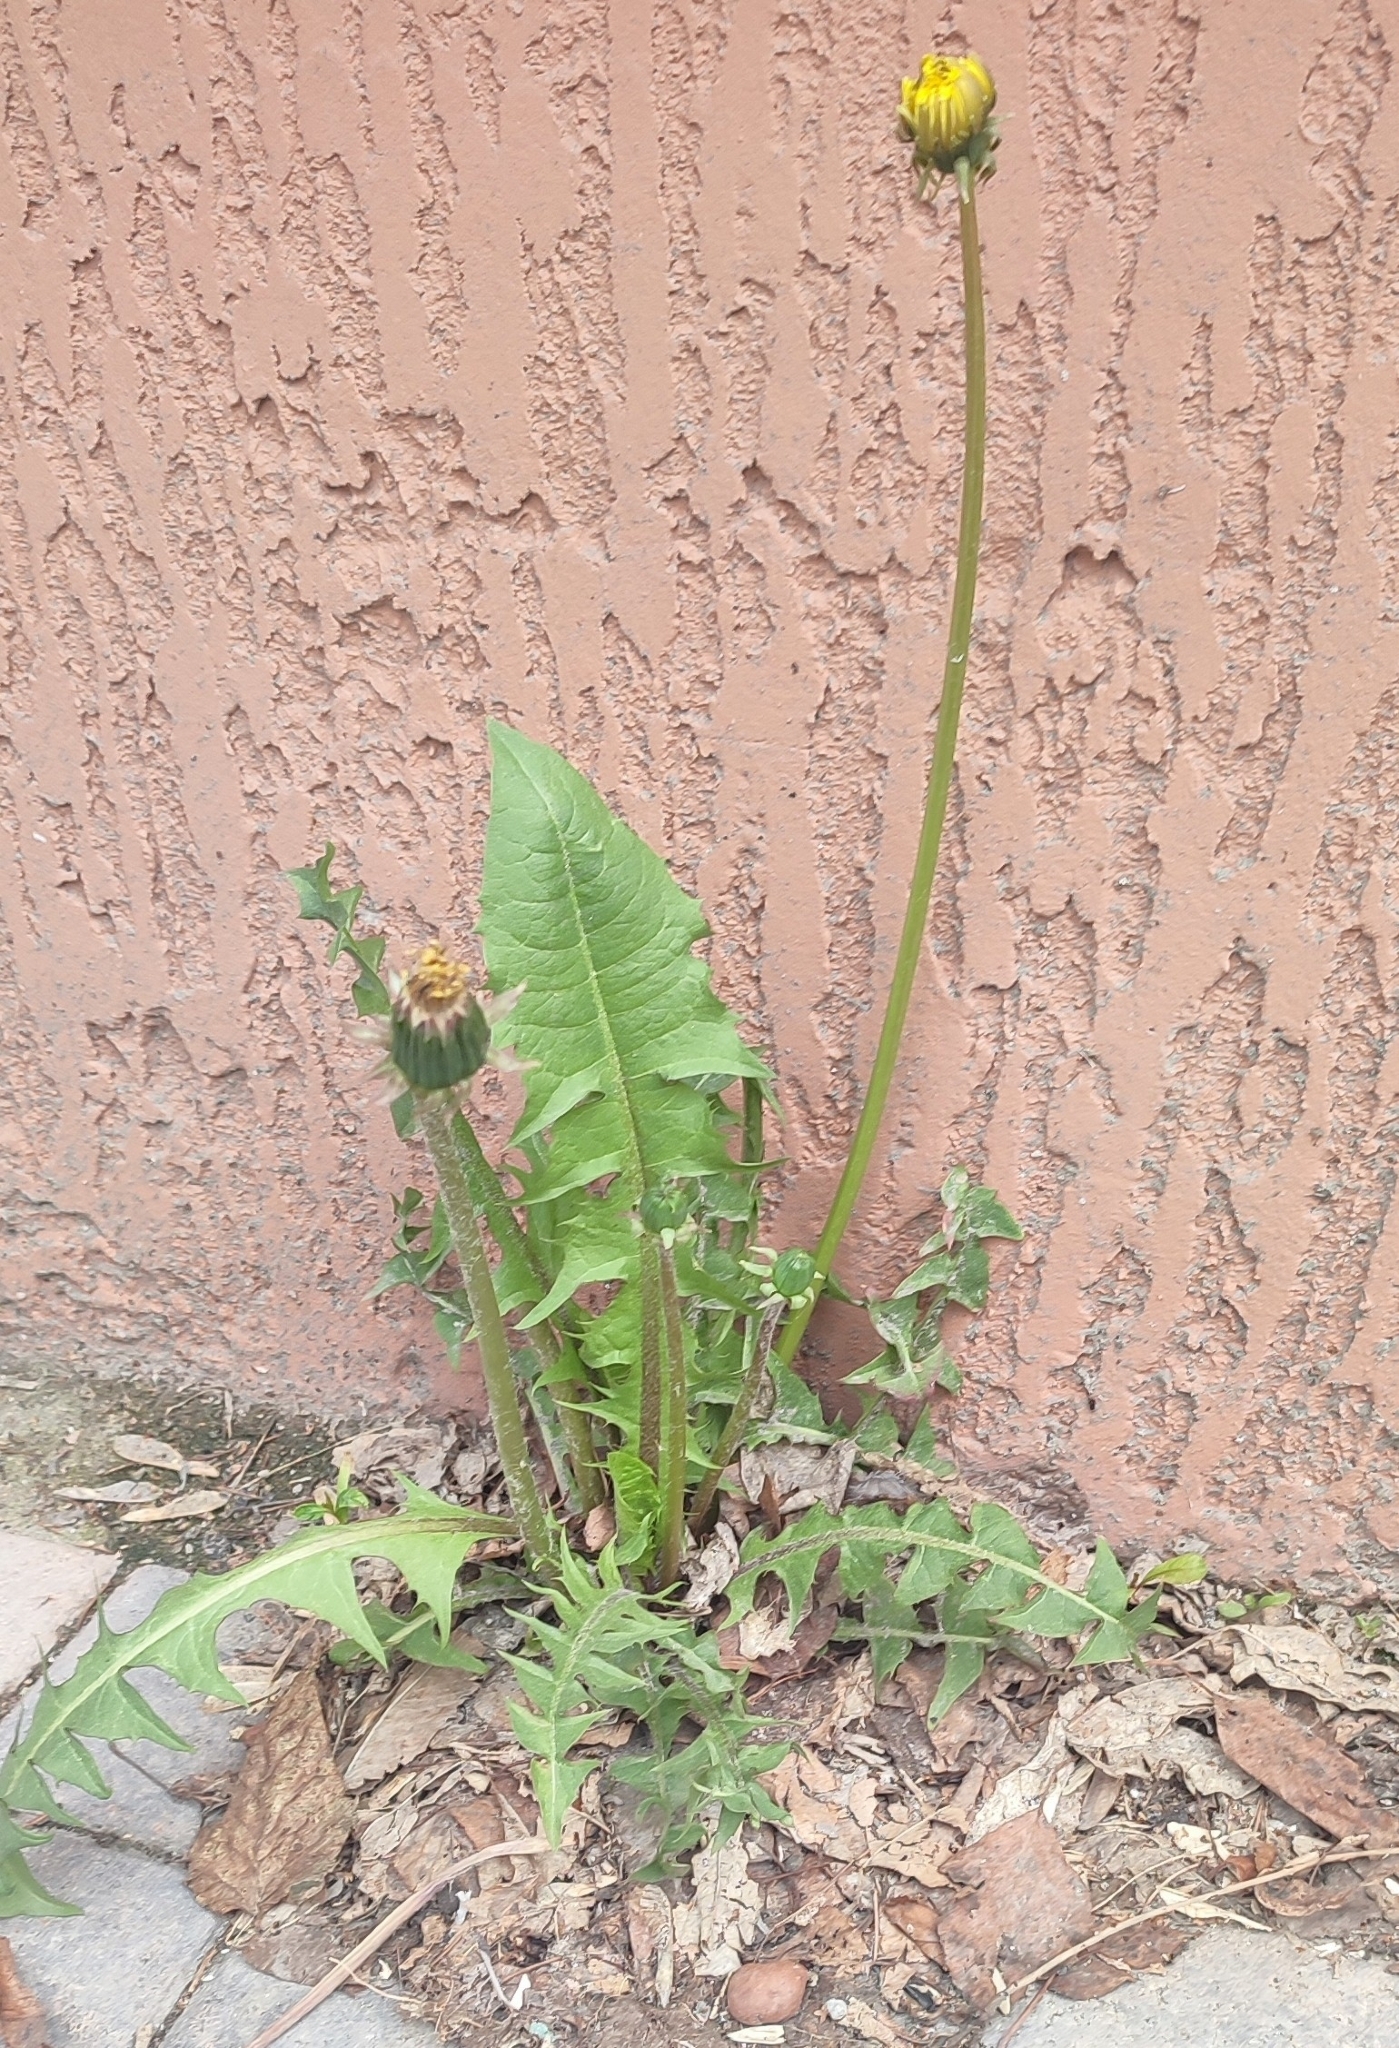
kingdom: Plantae
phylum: Tracheophyta
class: Magnoliopsida
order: Asterales
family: Asteraceae
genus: Taraxacum
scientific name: Taraxacum officinale
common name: Common dandelion
